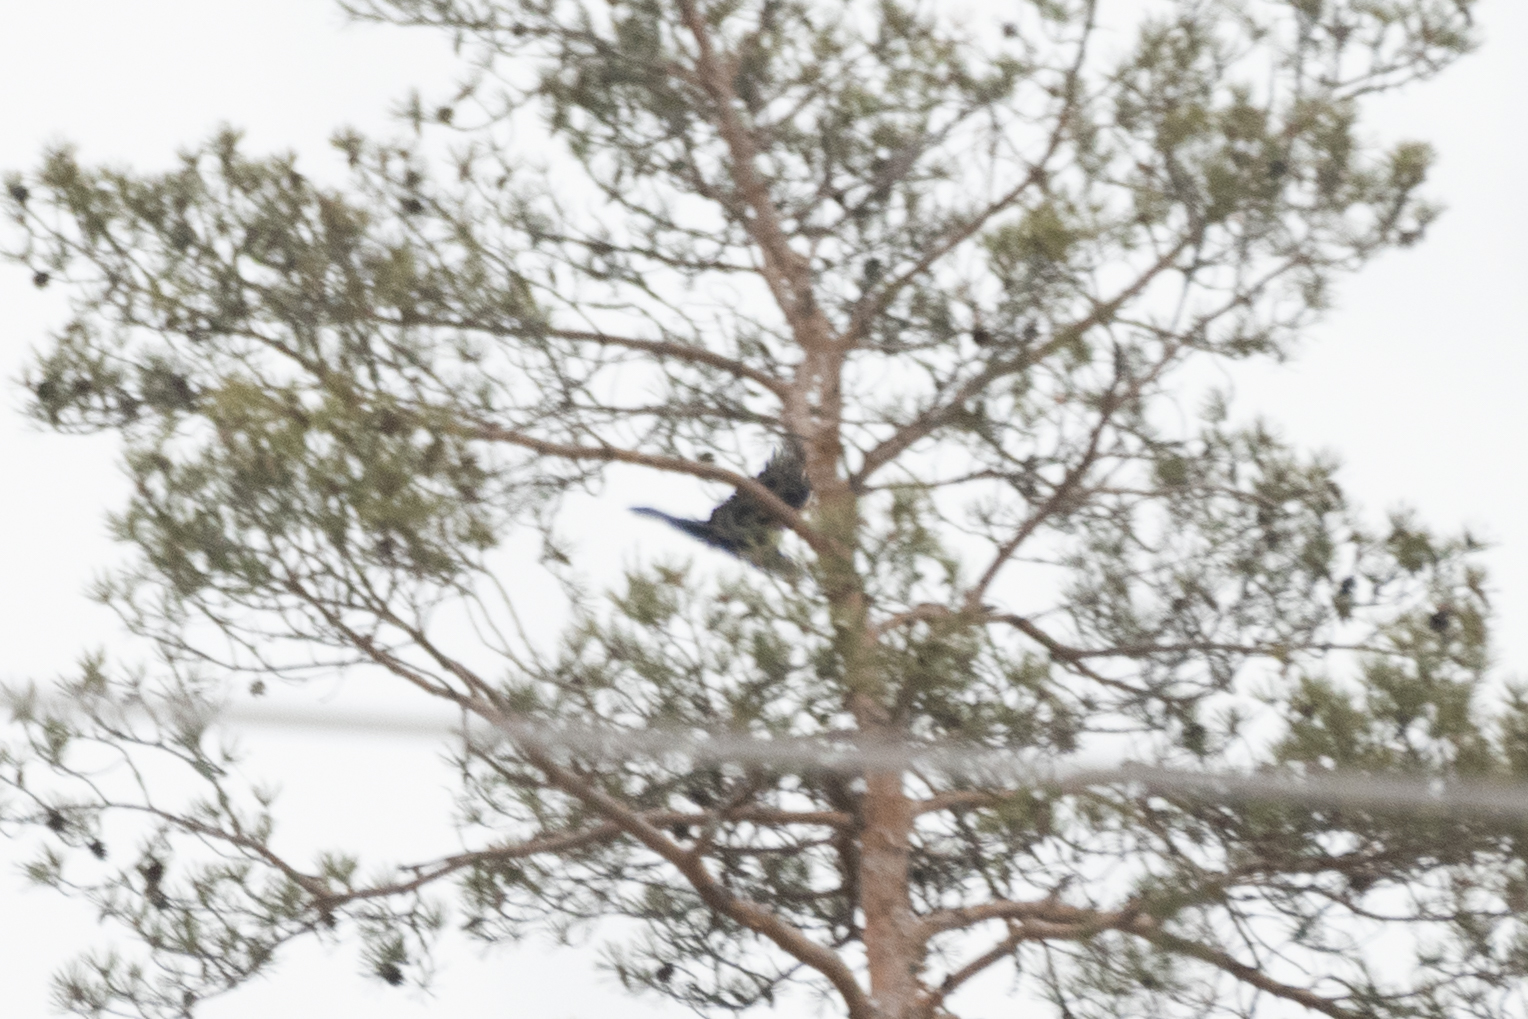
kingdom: Animalia
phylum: Chordata
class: Aves
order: Passeriformes
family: Corvidae
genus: Corvus
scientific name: Corvus corax
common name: Common raven
